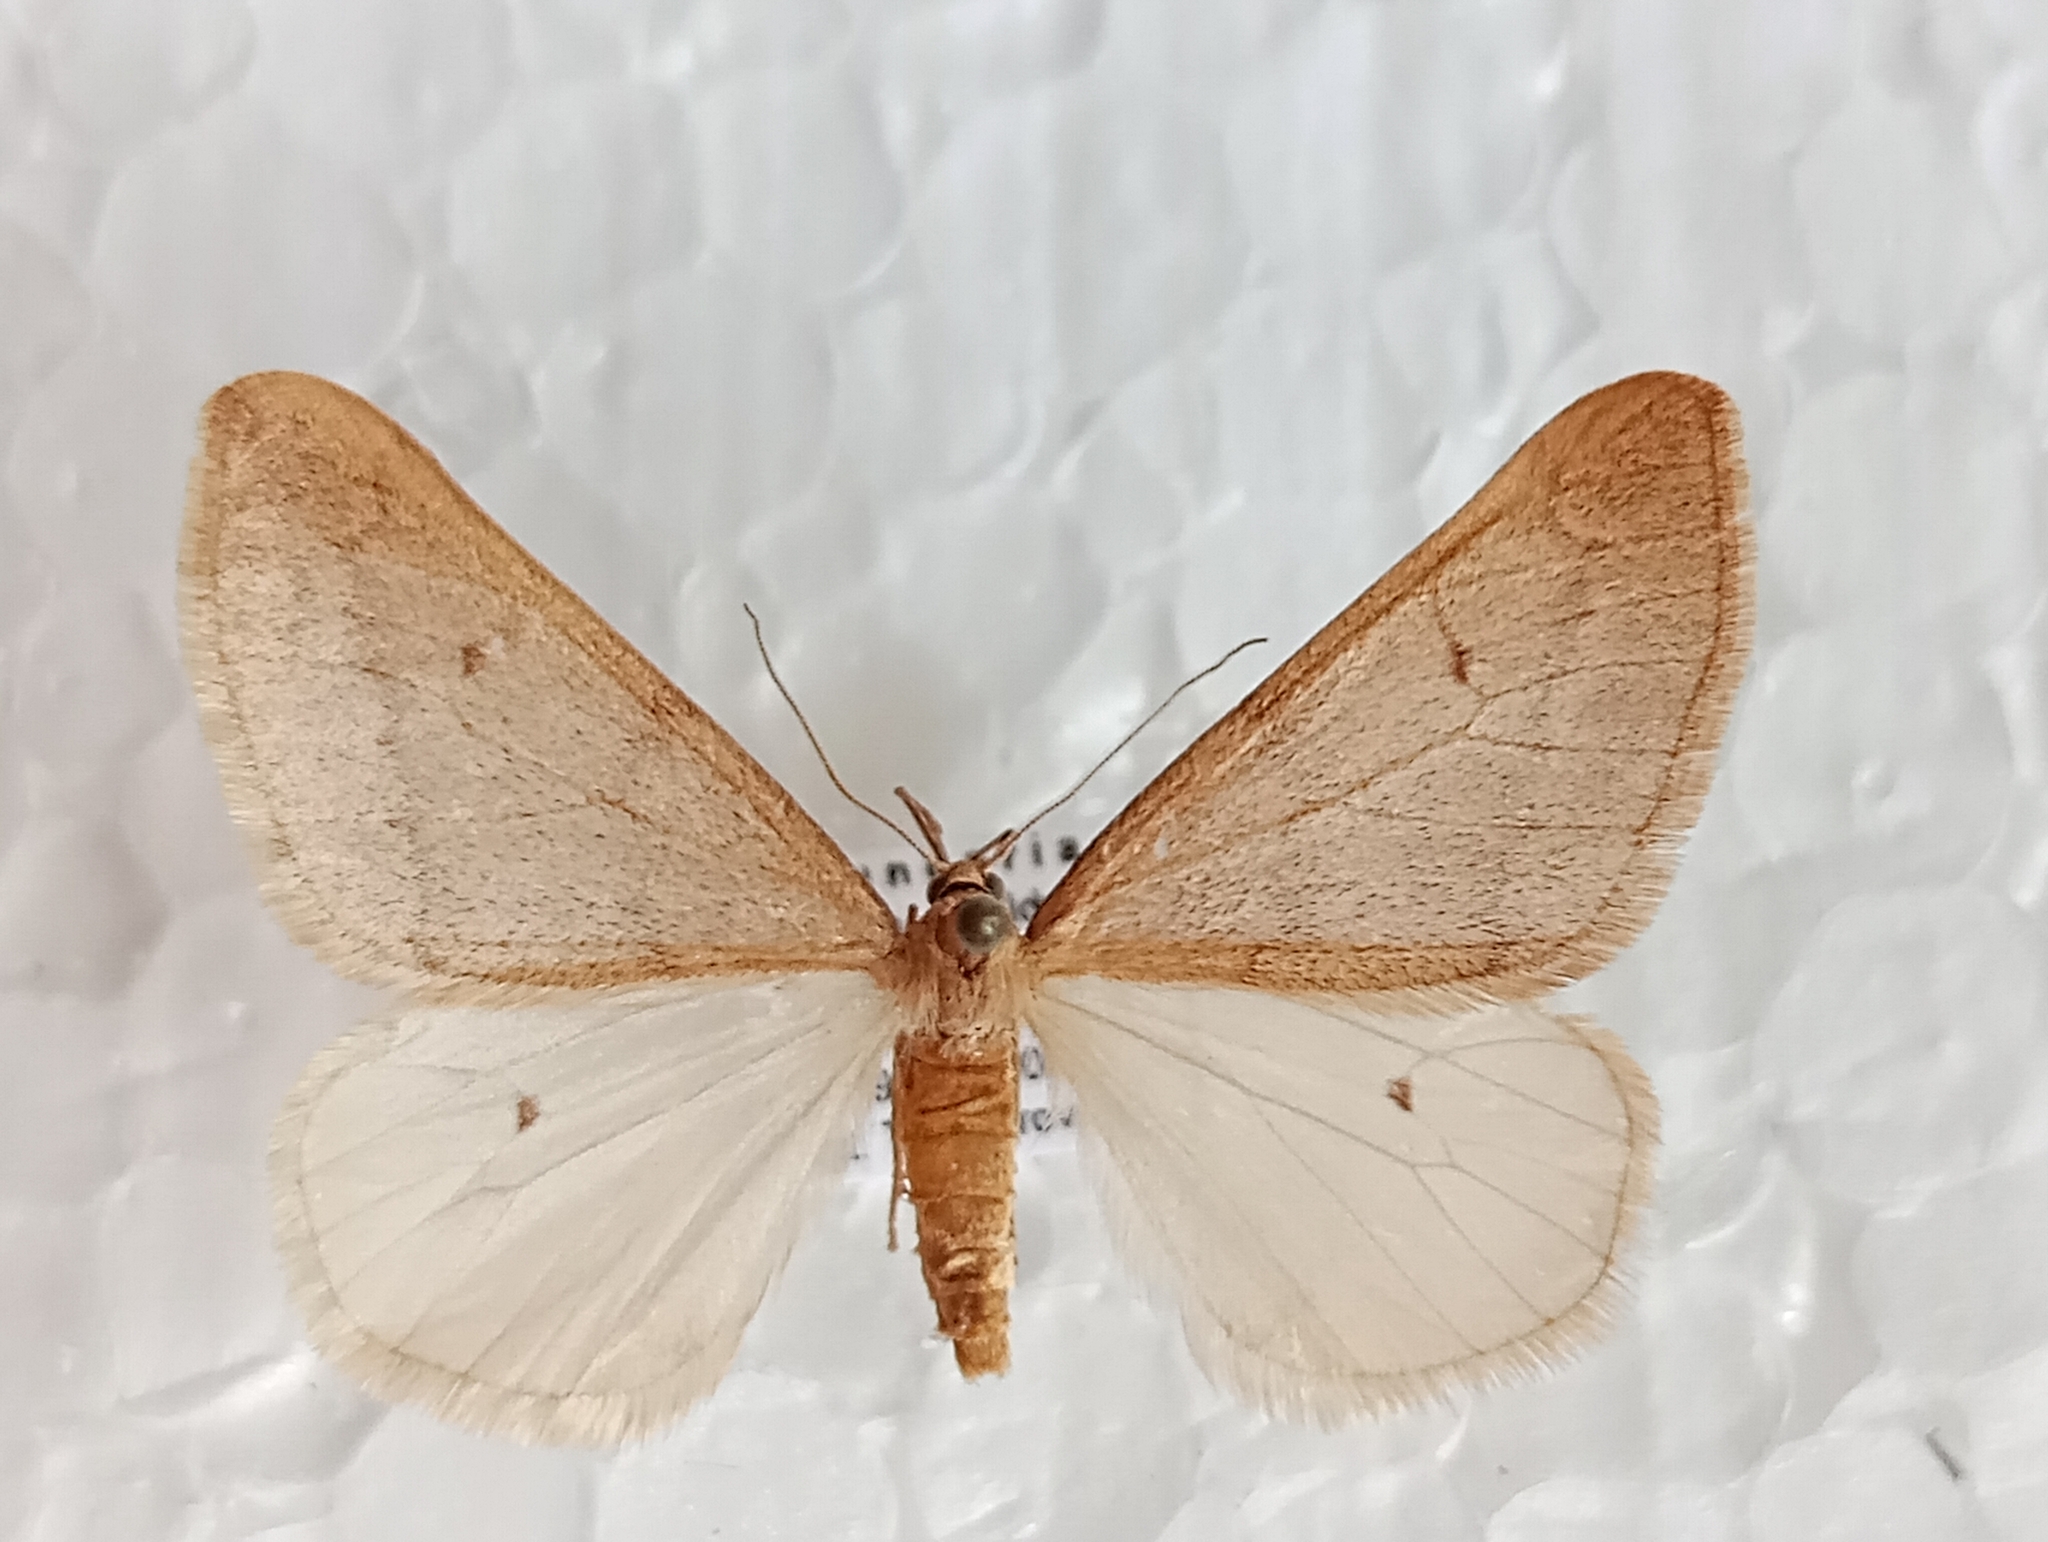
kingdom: Animalia
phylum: Arthropoda
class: Insecta
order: Lepidoptera
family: Geometridae
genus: Alsophila
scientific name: Alsophila aceraria
